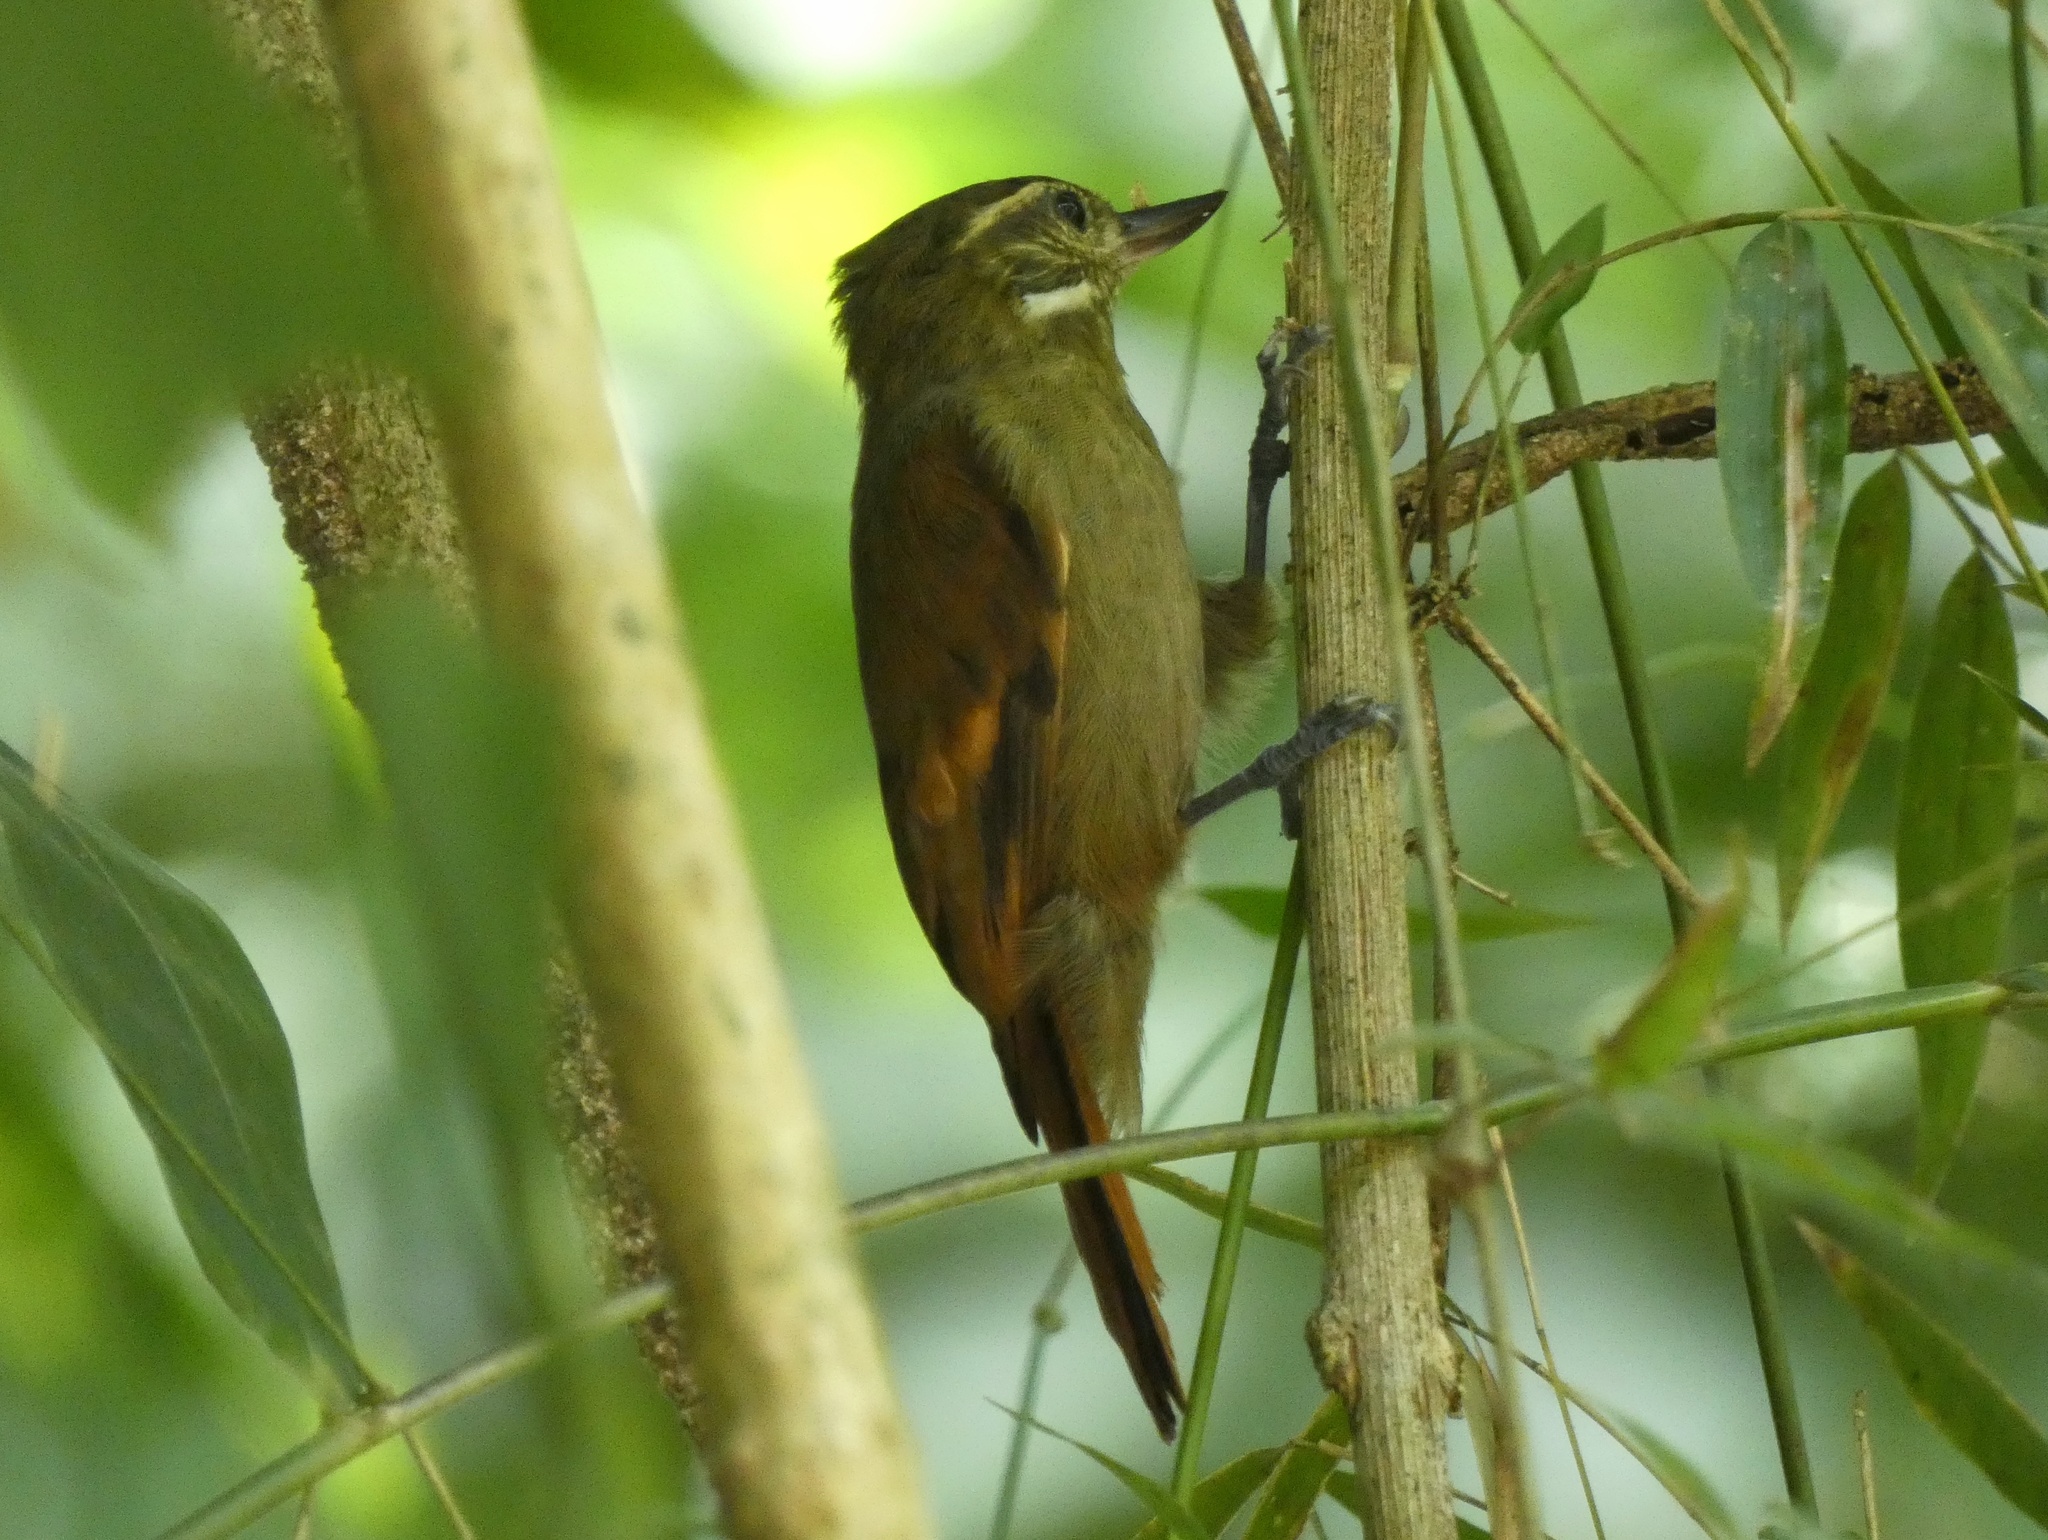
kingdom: Animalia
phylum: Chordata
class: Aves
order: Passeriformes
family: Furnariidae
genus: Xenops
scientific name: Xenops minutus
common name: Plain xenops
